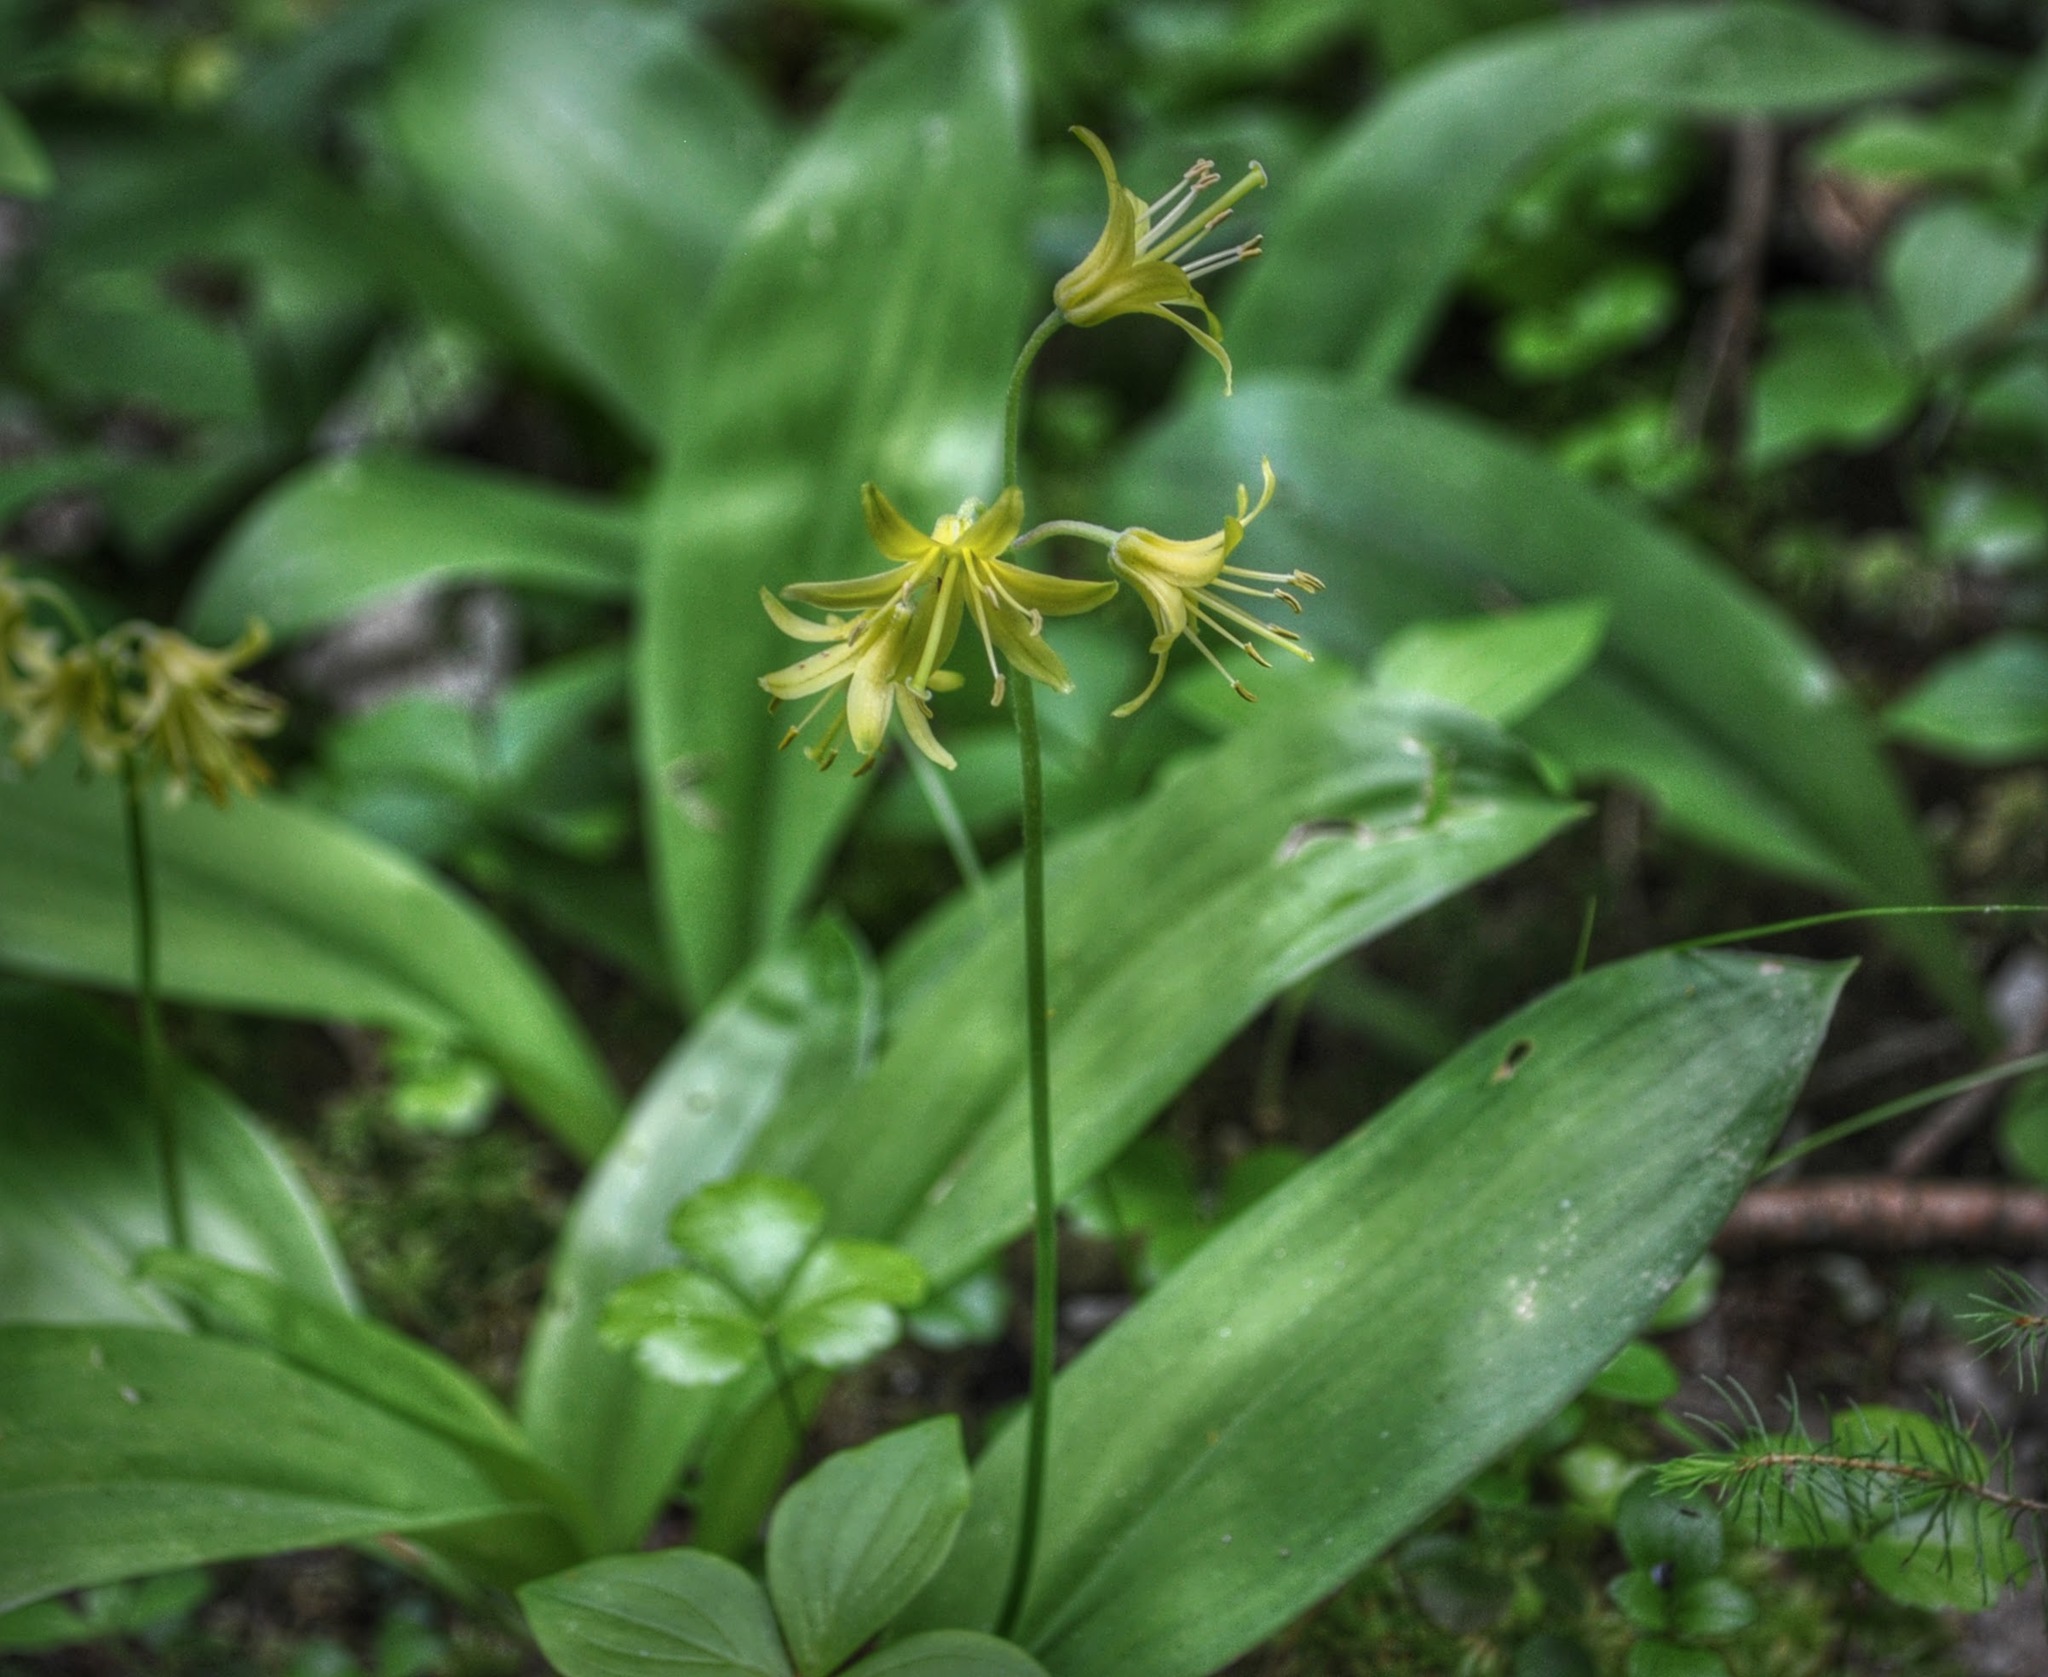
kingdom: Plantae
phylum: Tracheophyta
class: Liliopsida
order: Liliales
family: Liliaceae
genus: Clintonia
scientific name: Clintonia borealis
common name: Yellow clintonia
